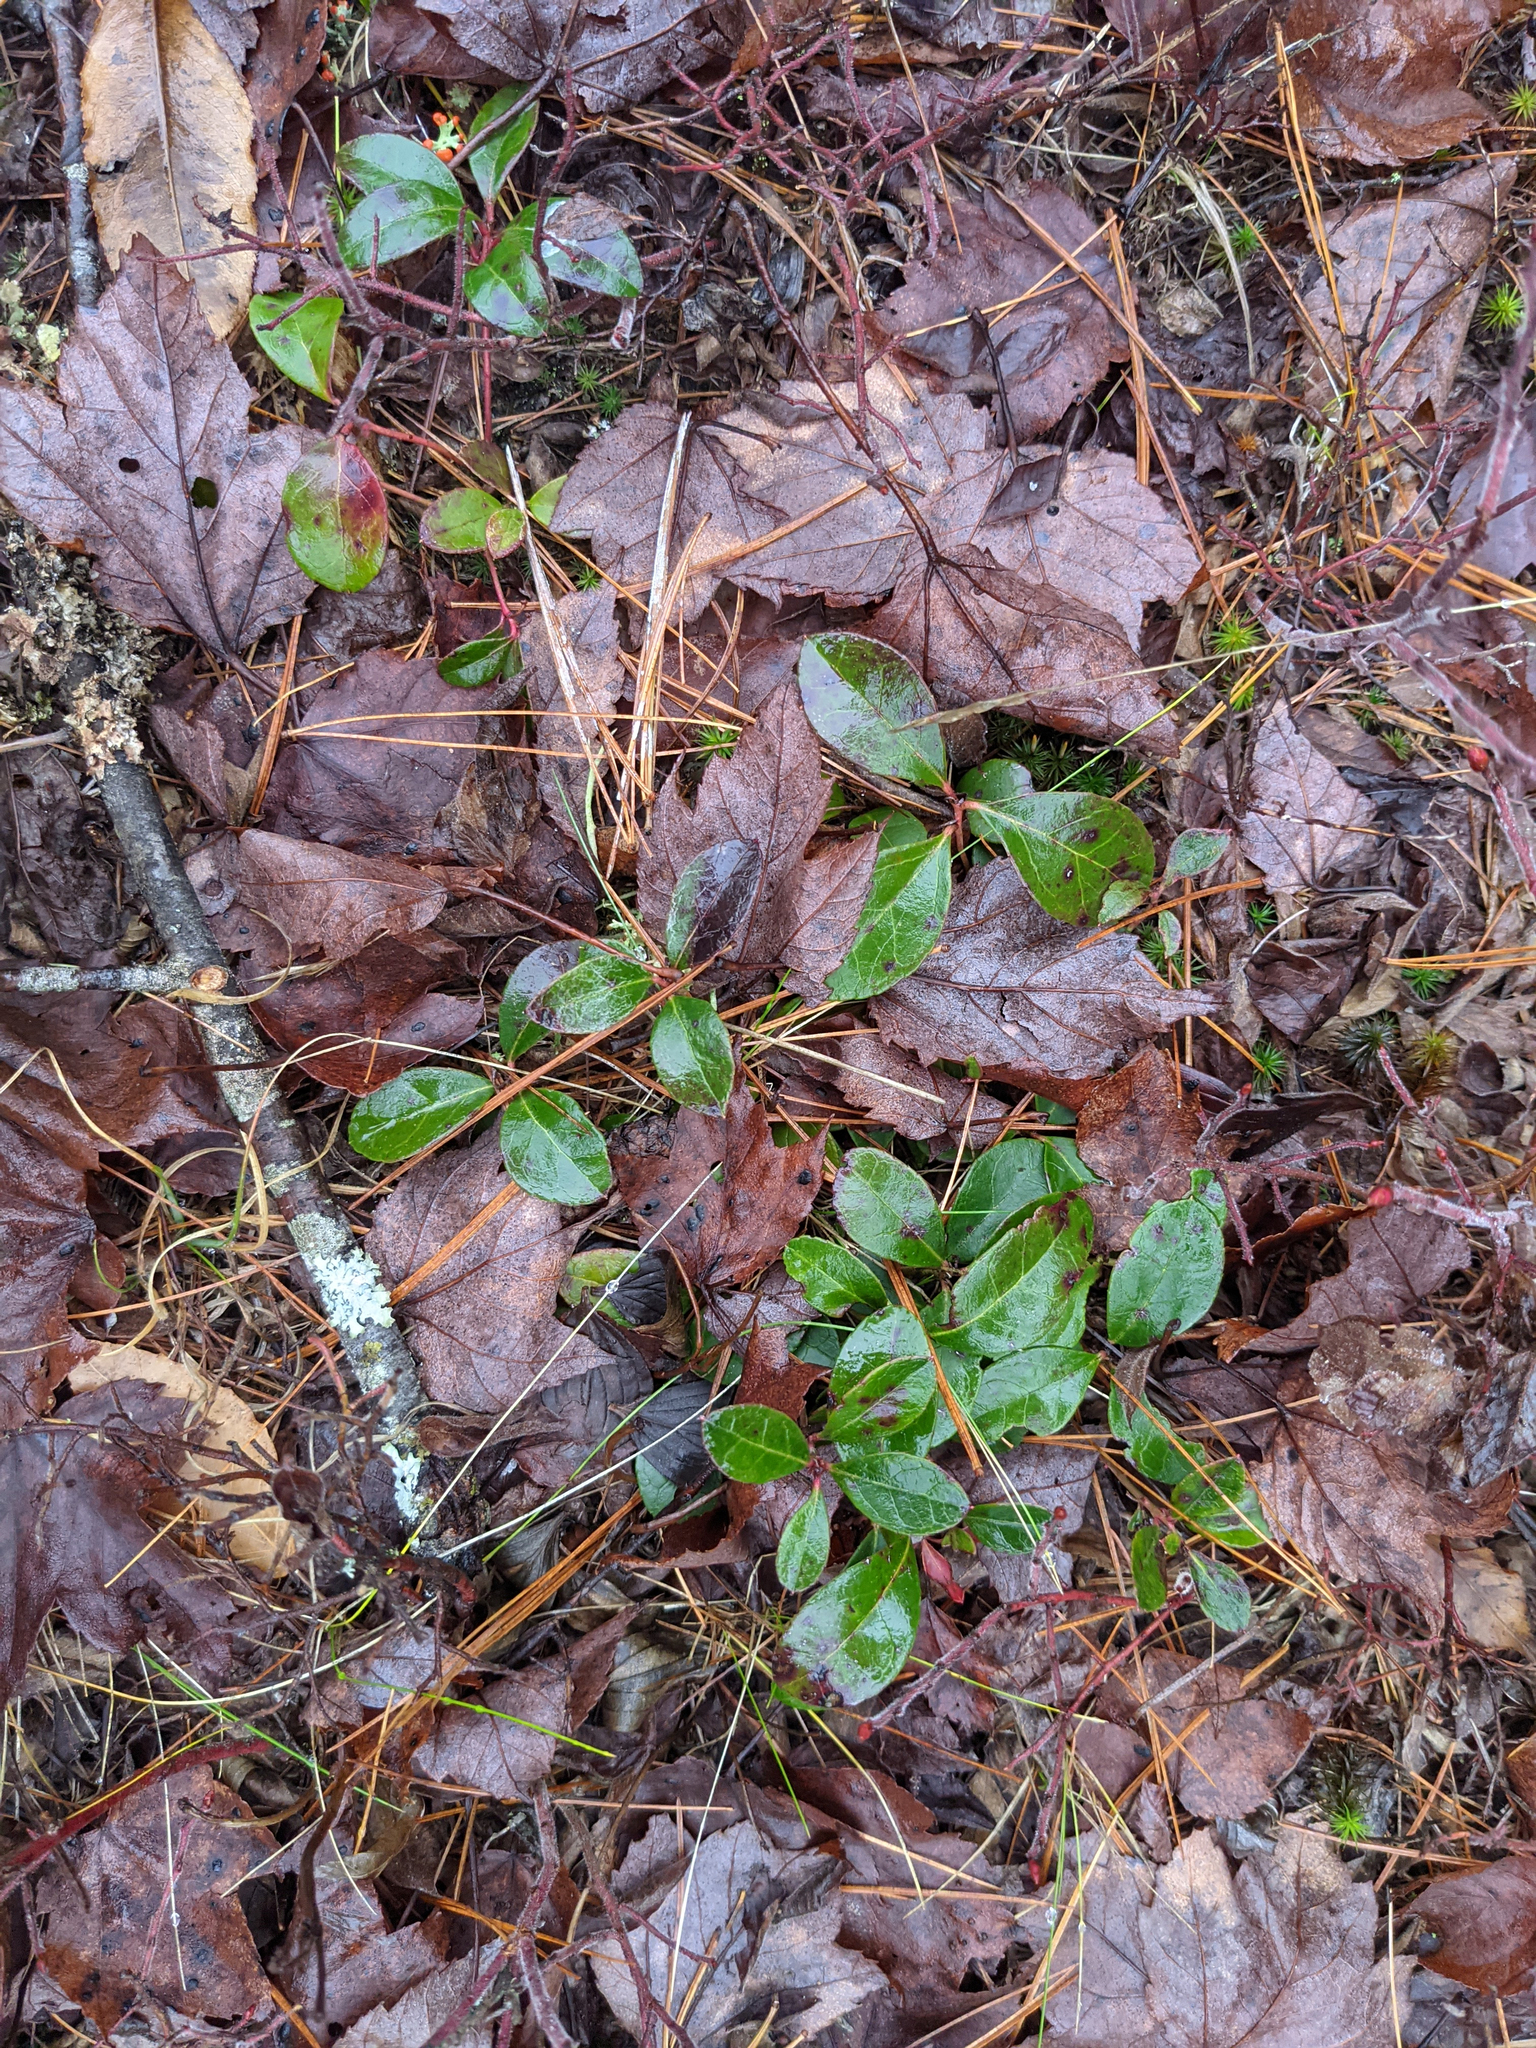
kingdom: Plantae
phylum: Tracheophyta
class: Magnoliopsida
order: Ericales
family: Ericaceae
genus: Gaultheria
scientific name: Gaultheria procumbens
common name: Checkerberry
